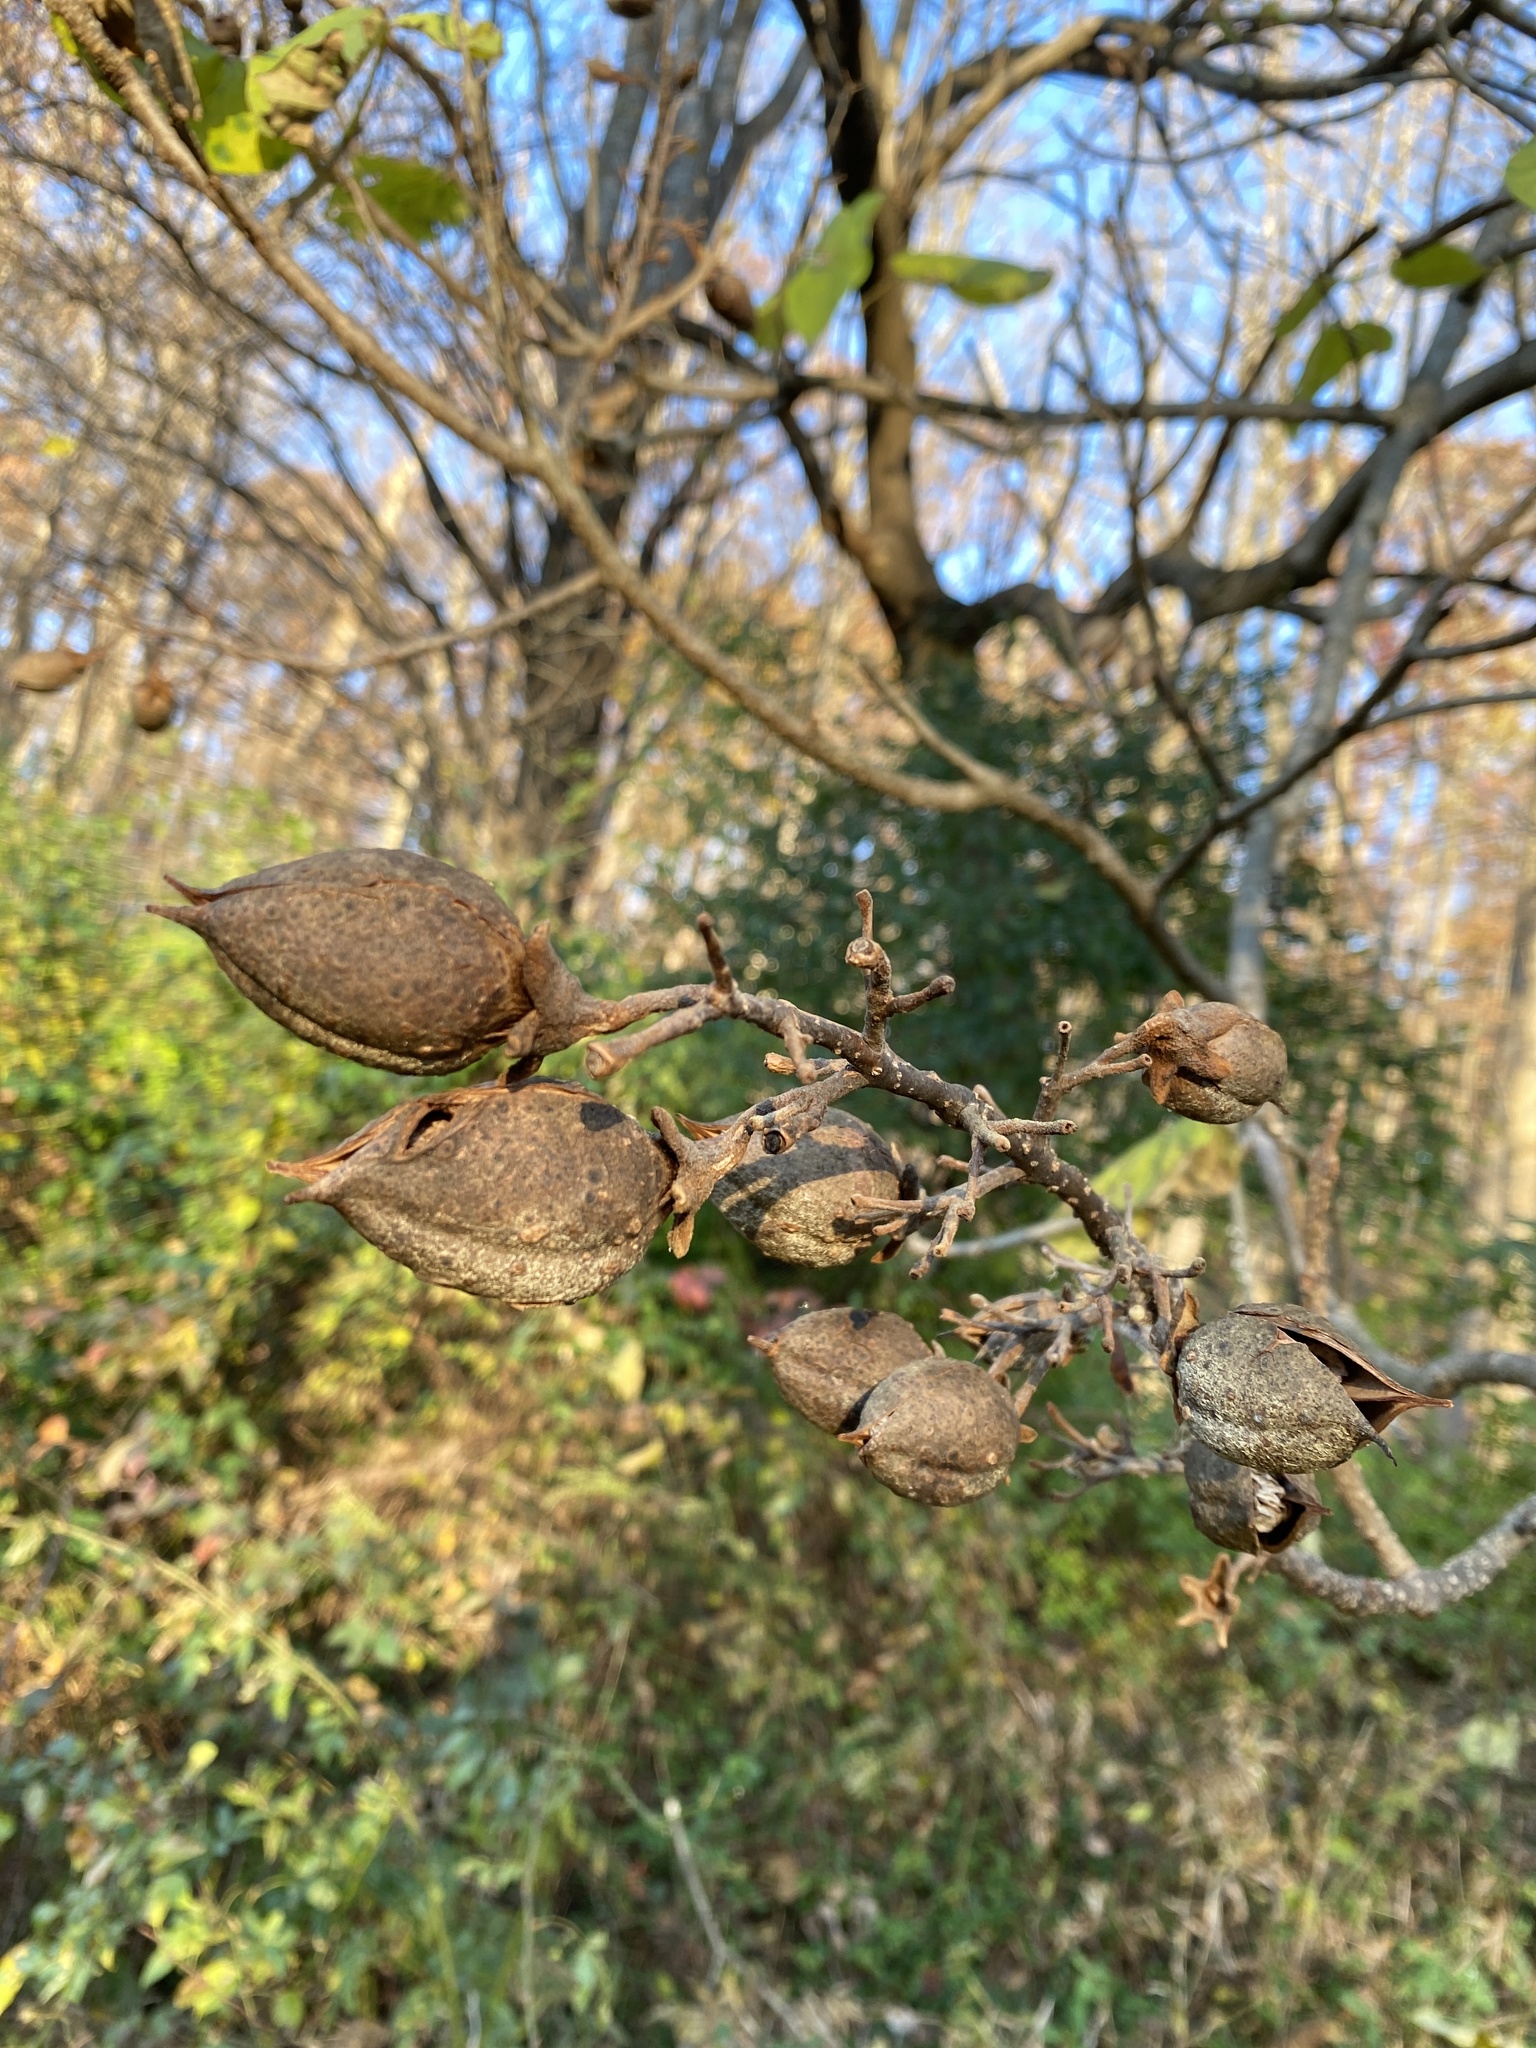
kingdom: Plantae
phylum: Tracheophyta
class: Magnoliopsida
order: Lamiales
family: Paulowniaceae
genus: Paulownia
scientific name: Paulownia tomentosa
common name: Foxglove-tree
